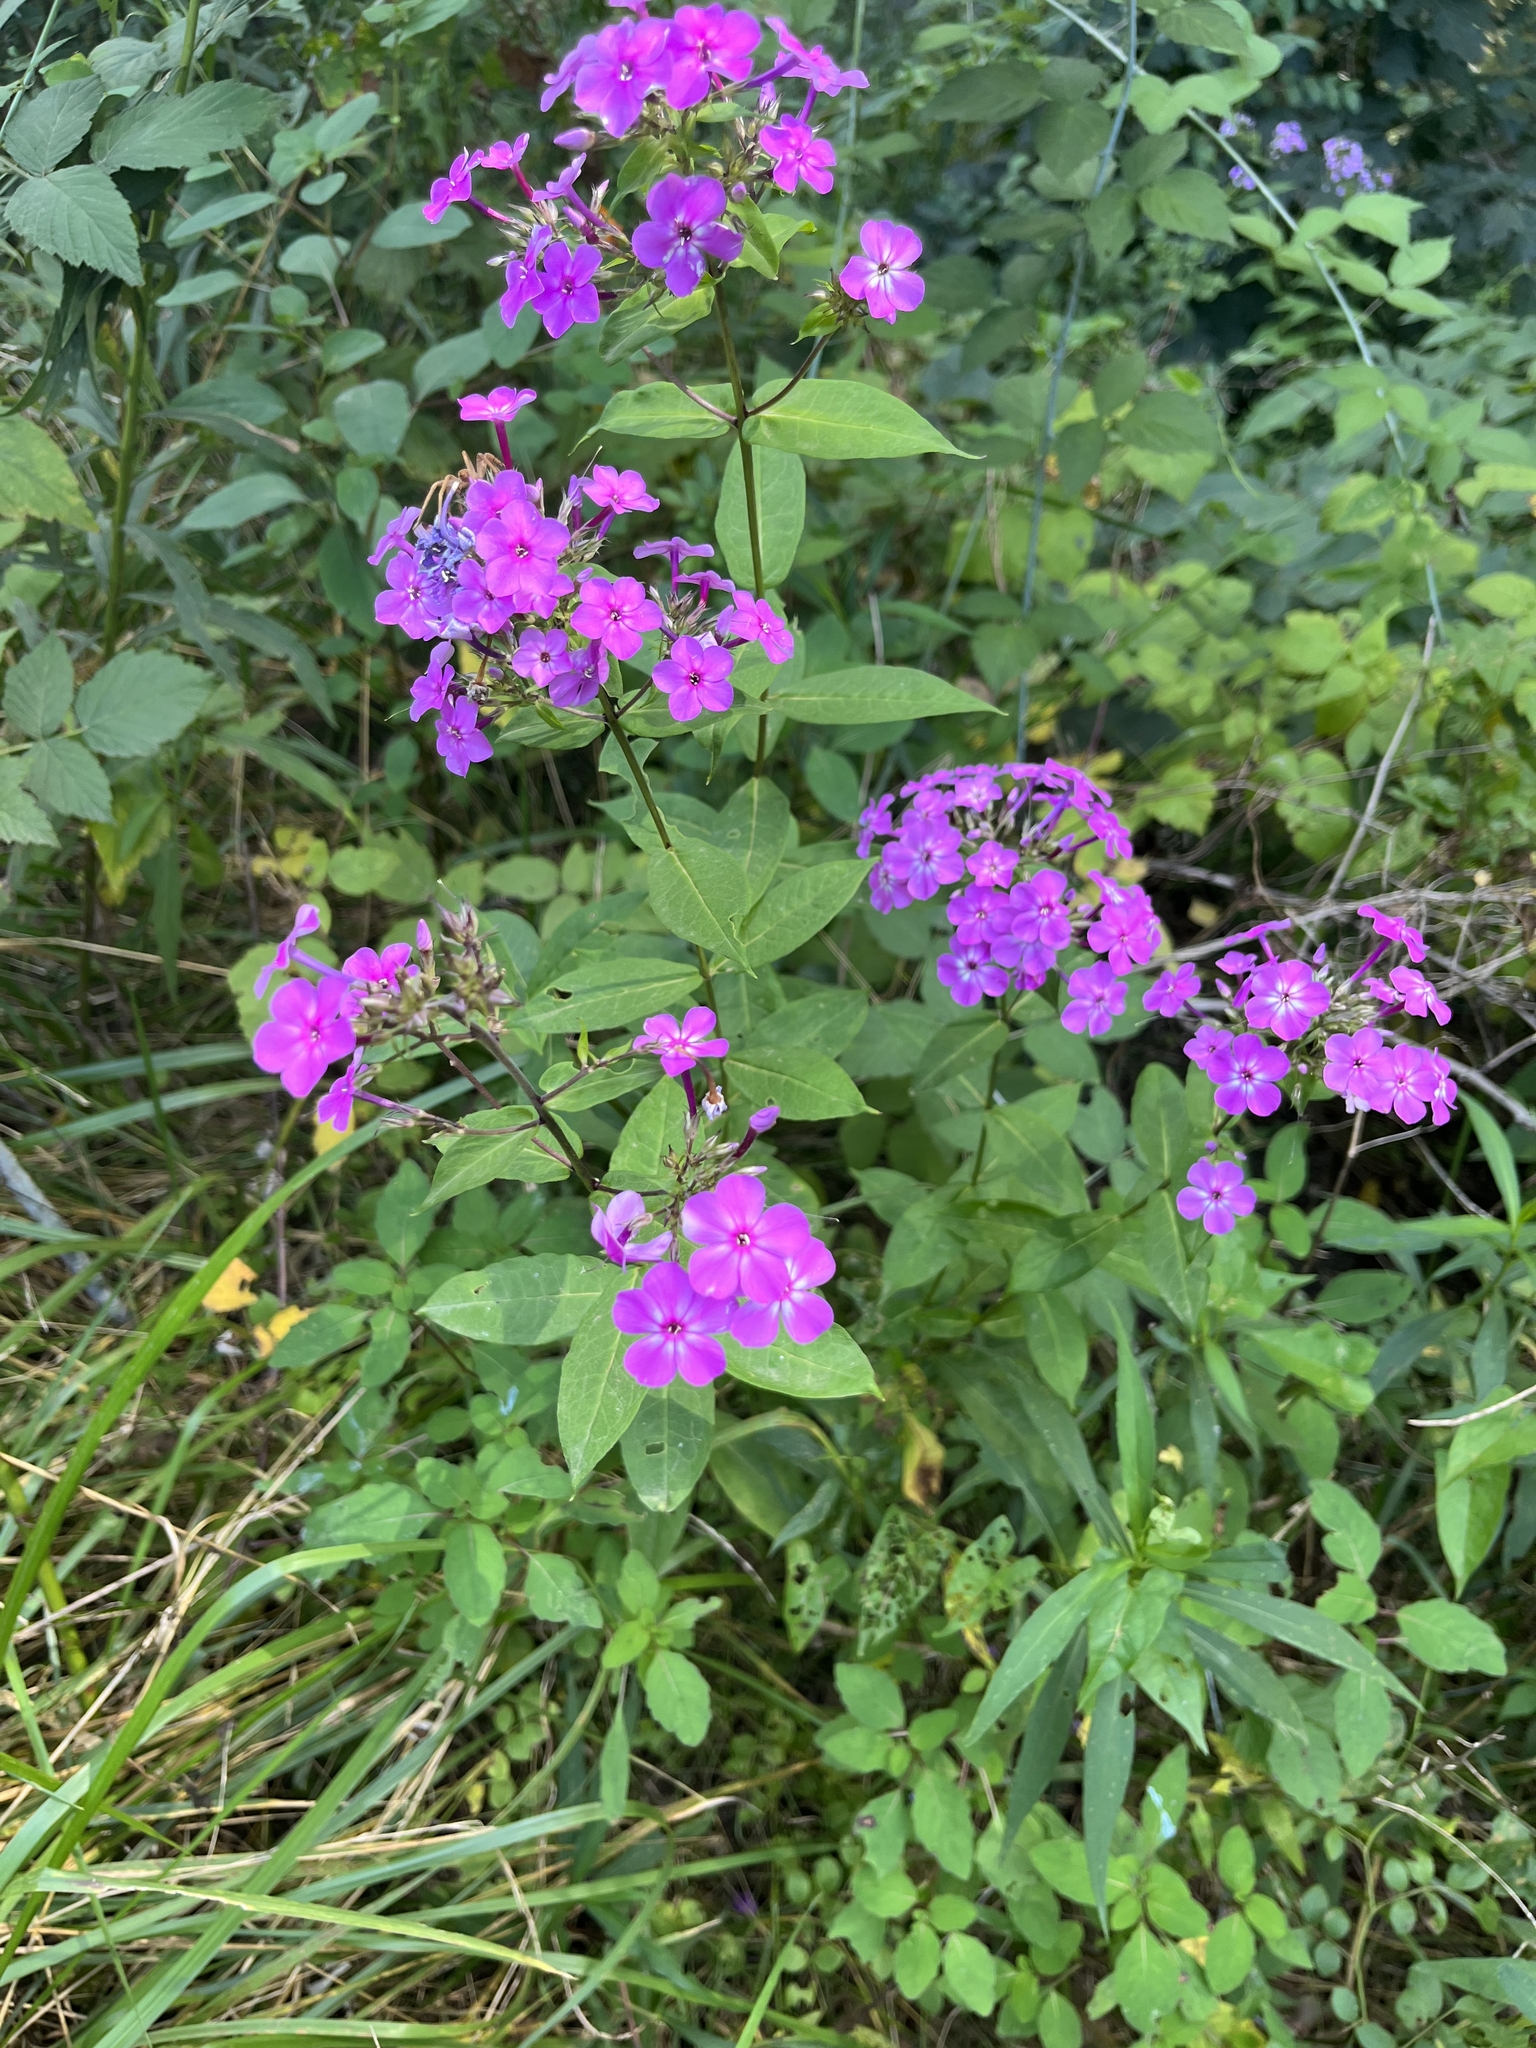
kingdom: Plantae
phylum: Tracheophyta
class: Magnoliopsida
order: Ericales
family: Polemoniaceae
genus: Phlox
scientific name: Phlox paniculata
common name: Fall phlox
